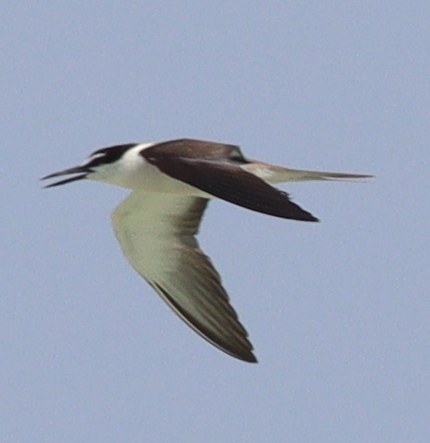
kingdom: Animalia
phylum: Chordata
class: Aves
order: Charadriiformes
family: Laridae
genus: Onychoprion
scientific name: Onychoprion anaethetus
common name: Bridled tern
